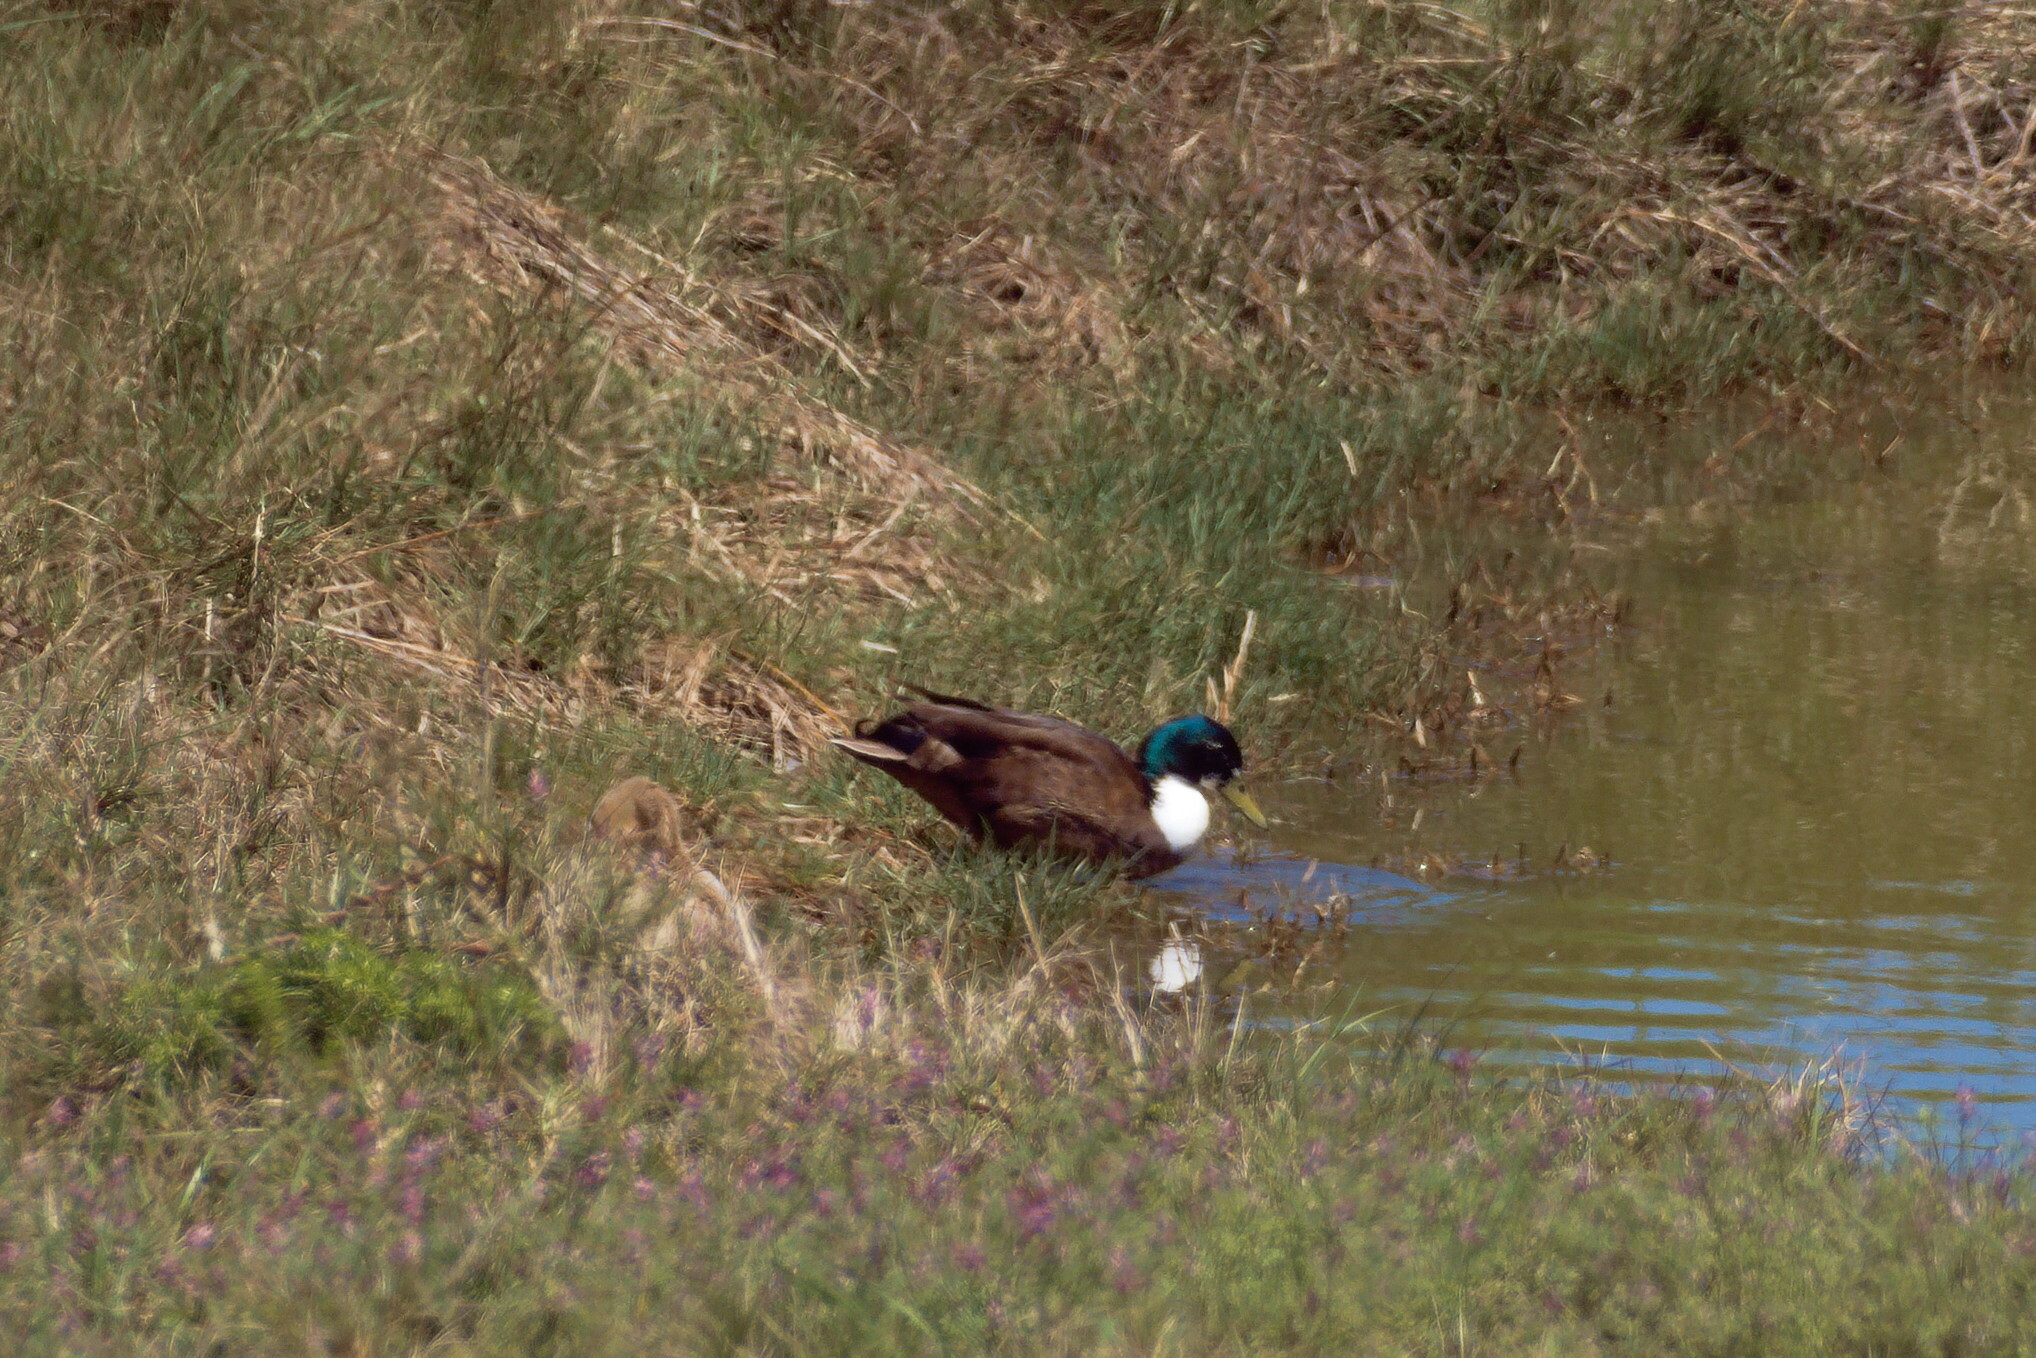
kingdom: Animalia
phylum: Chordata
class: Aves
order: Anseriformes
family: Anatidae
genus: Anas
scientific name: Anas platyrhynchos
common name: Mallard
